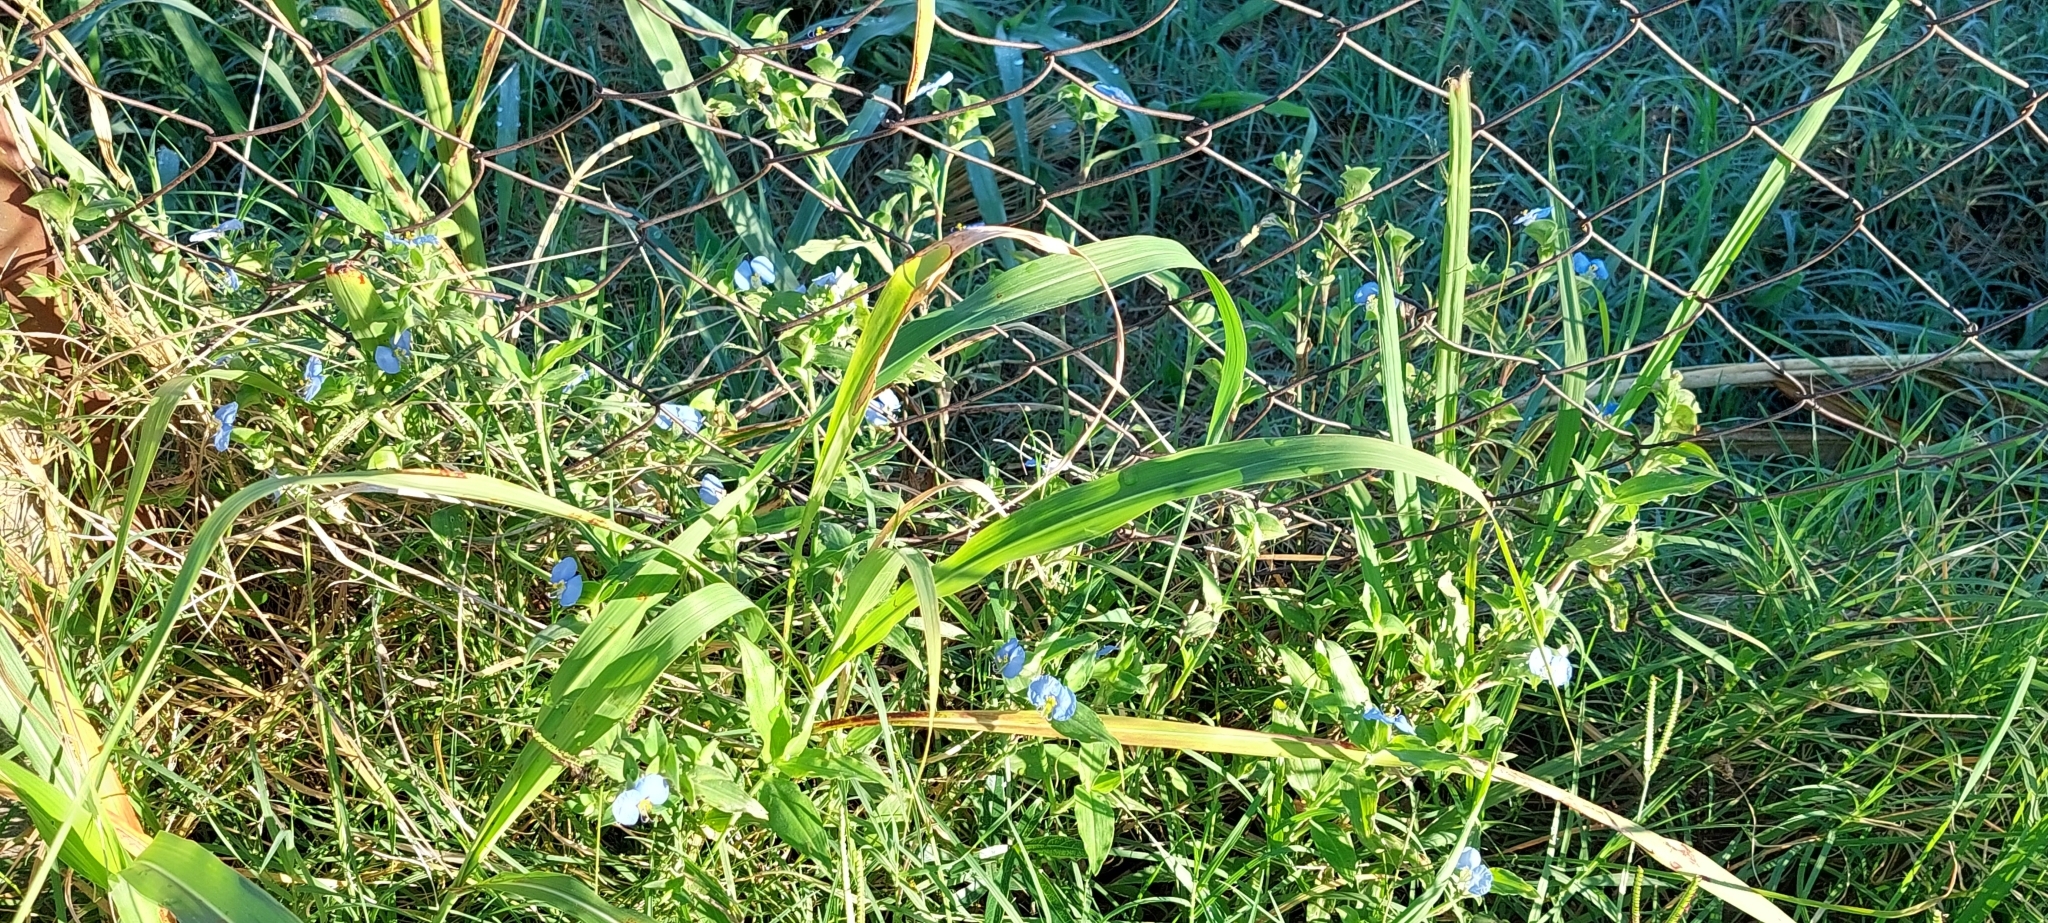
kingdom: Plantae
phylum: Tracheophyta
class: Liliopsida
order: Commelinales
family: Commelinaceae
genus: Commelina
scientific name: Commelina erecta
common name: Blousel blommetjie
